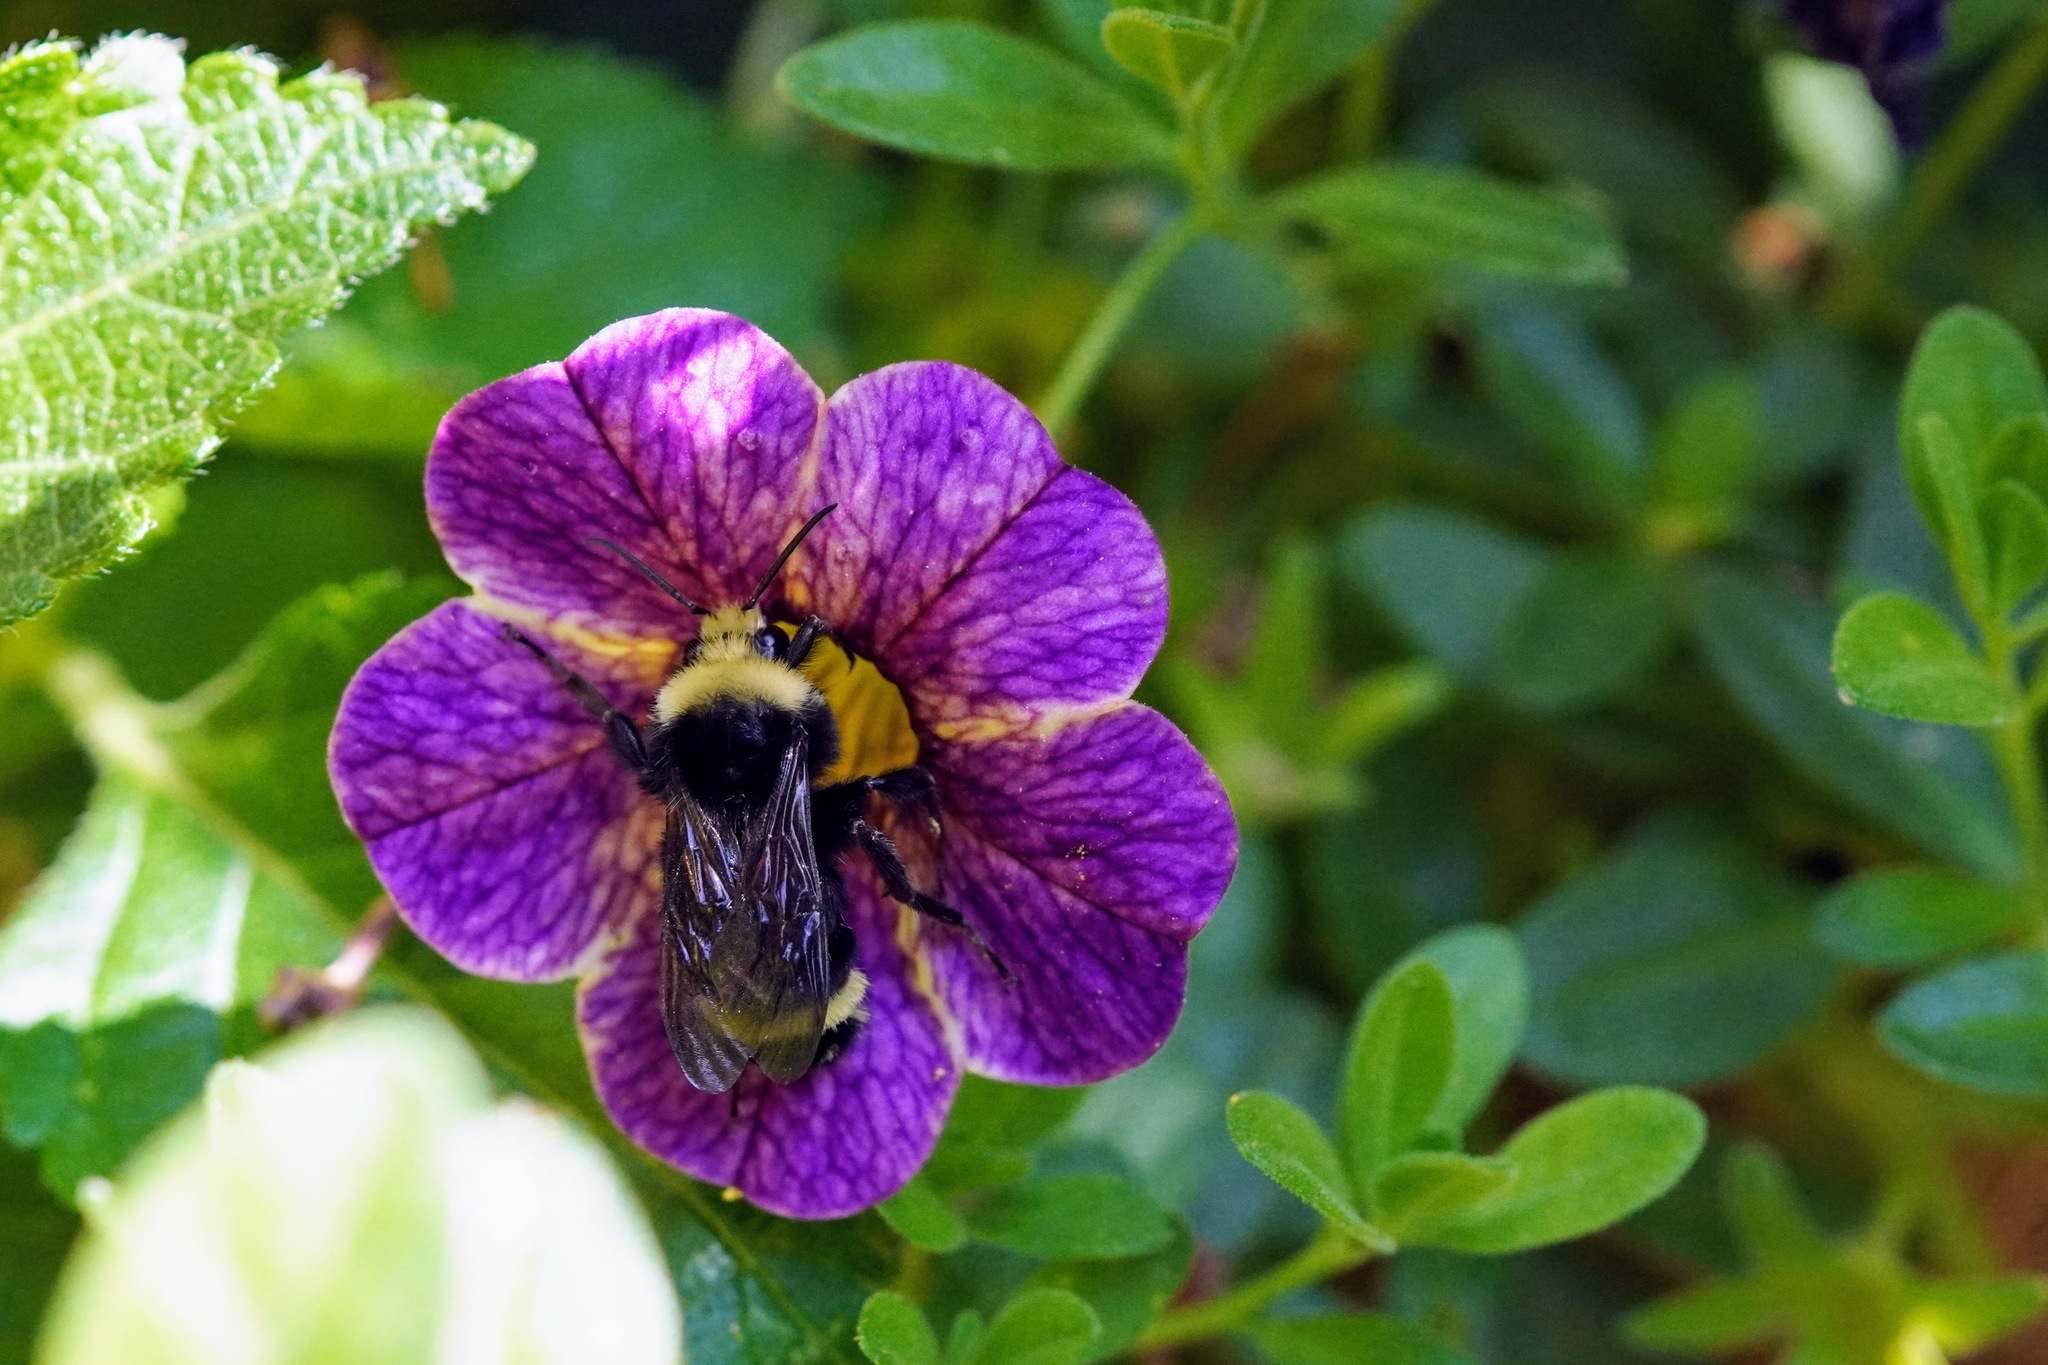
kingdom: Animalia
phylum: Arthropoda
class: Insecta
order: Hymenoptera
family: Apidae
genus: Bombus
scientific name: Bombus vosnesenskii
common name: Vosnesensky bumble bee
